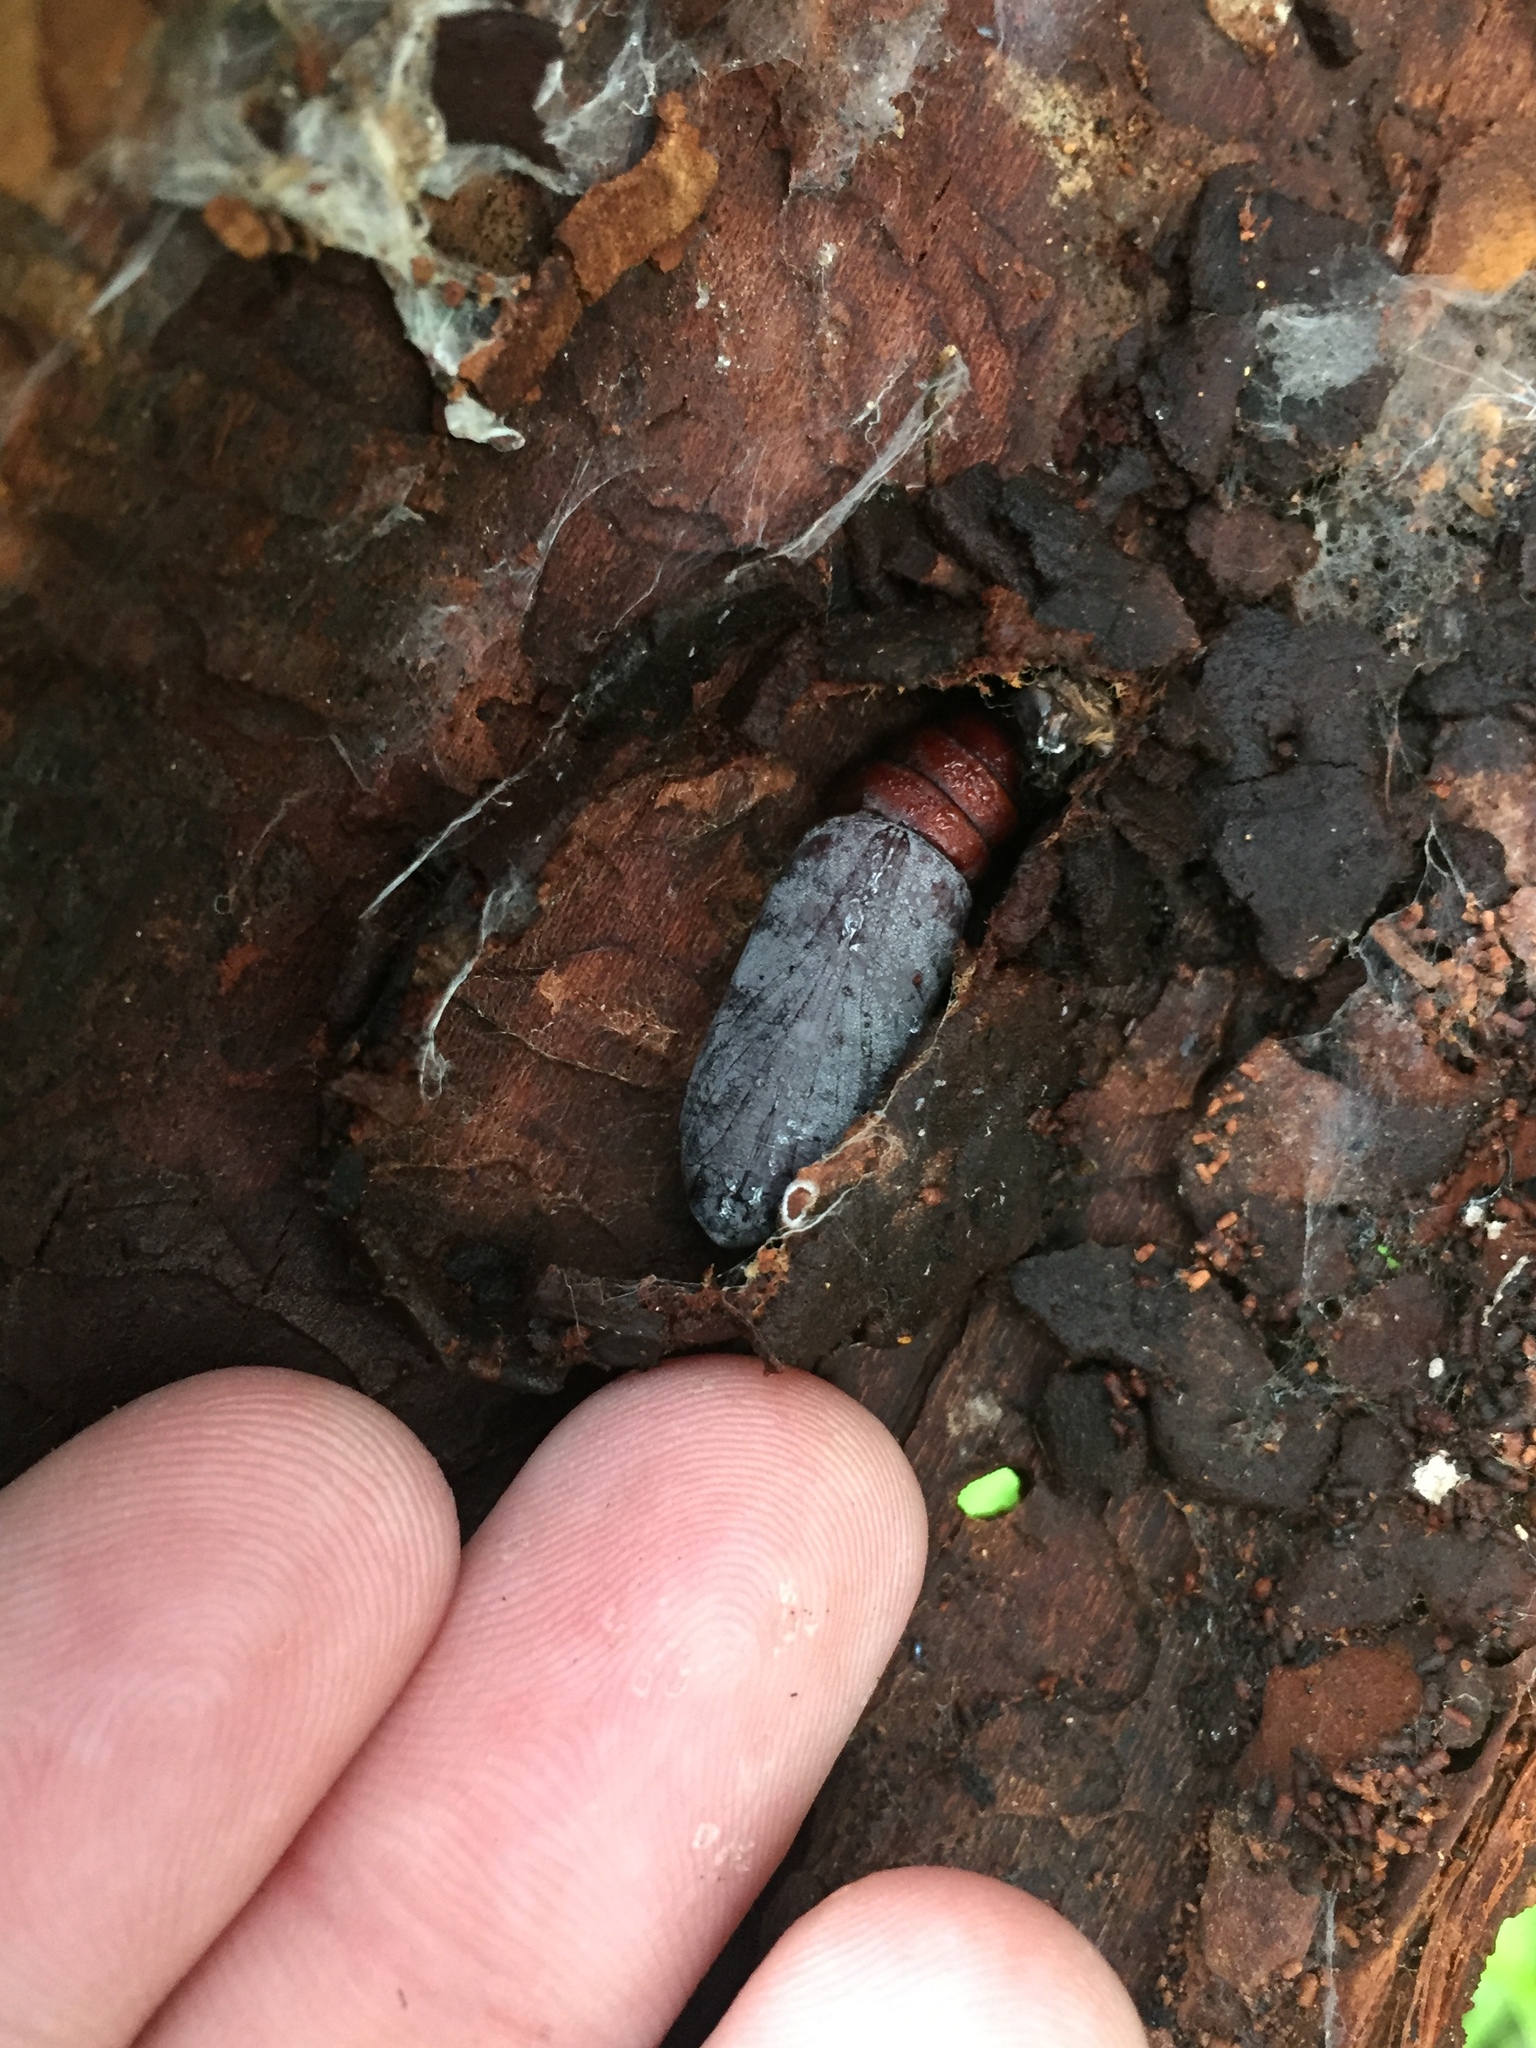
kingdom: Animalia
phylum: Arthropoda
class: Insecta
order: Lepidoptera
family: Erebidae
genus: Dasypodia
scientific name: Dasypodia cymatodes
